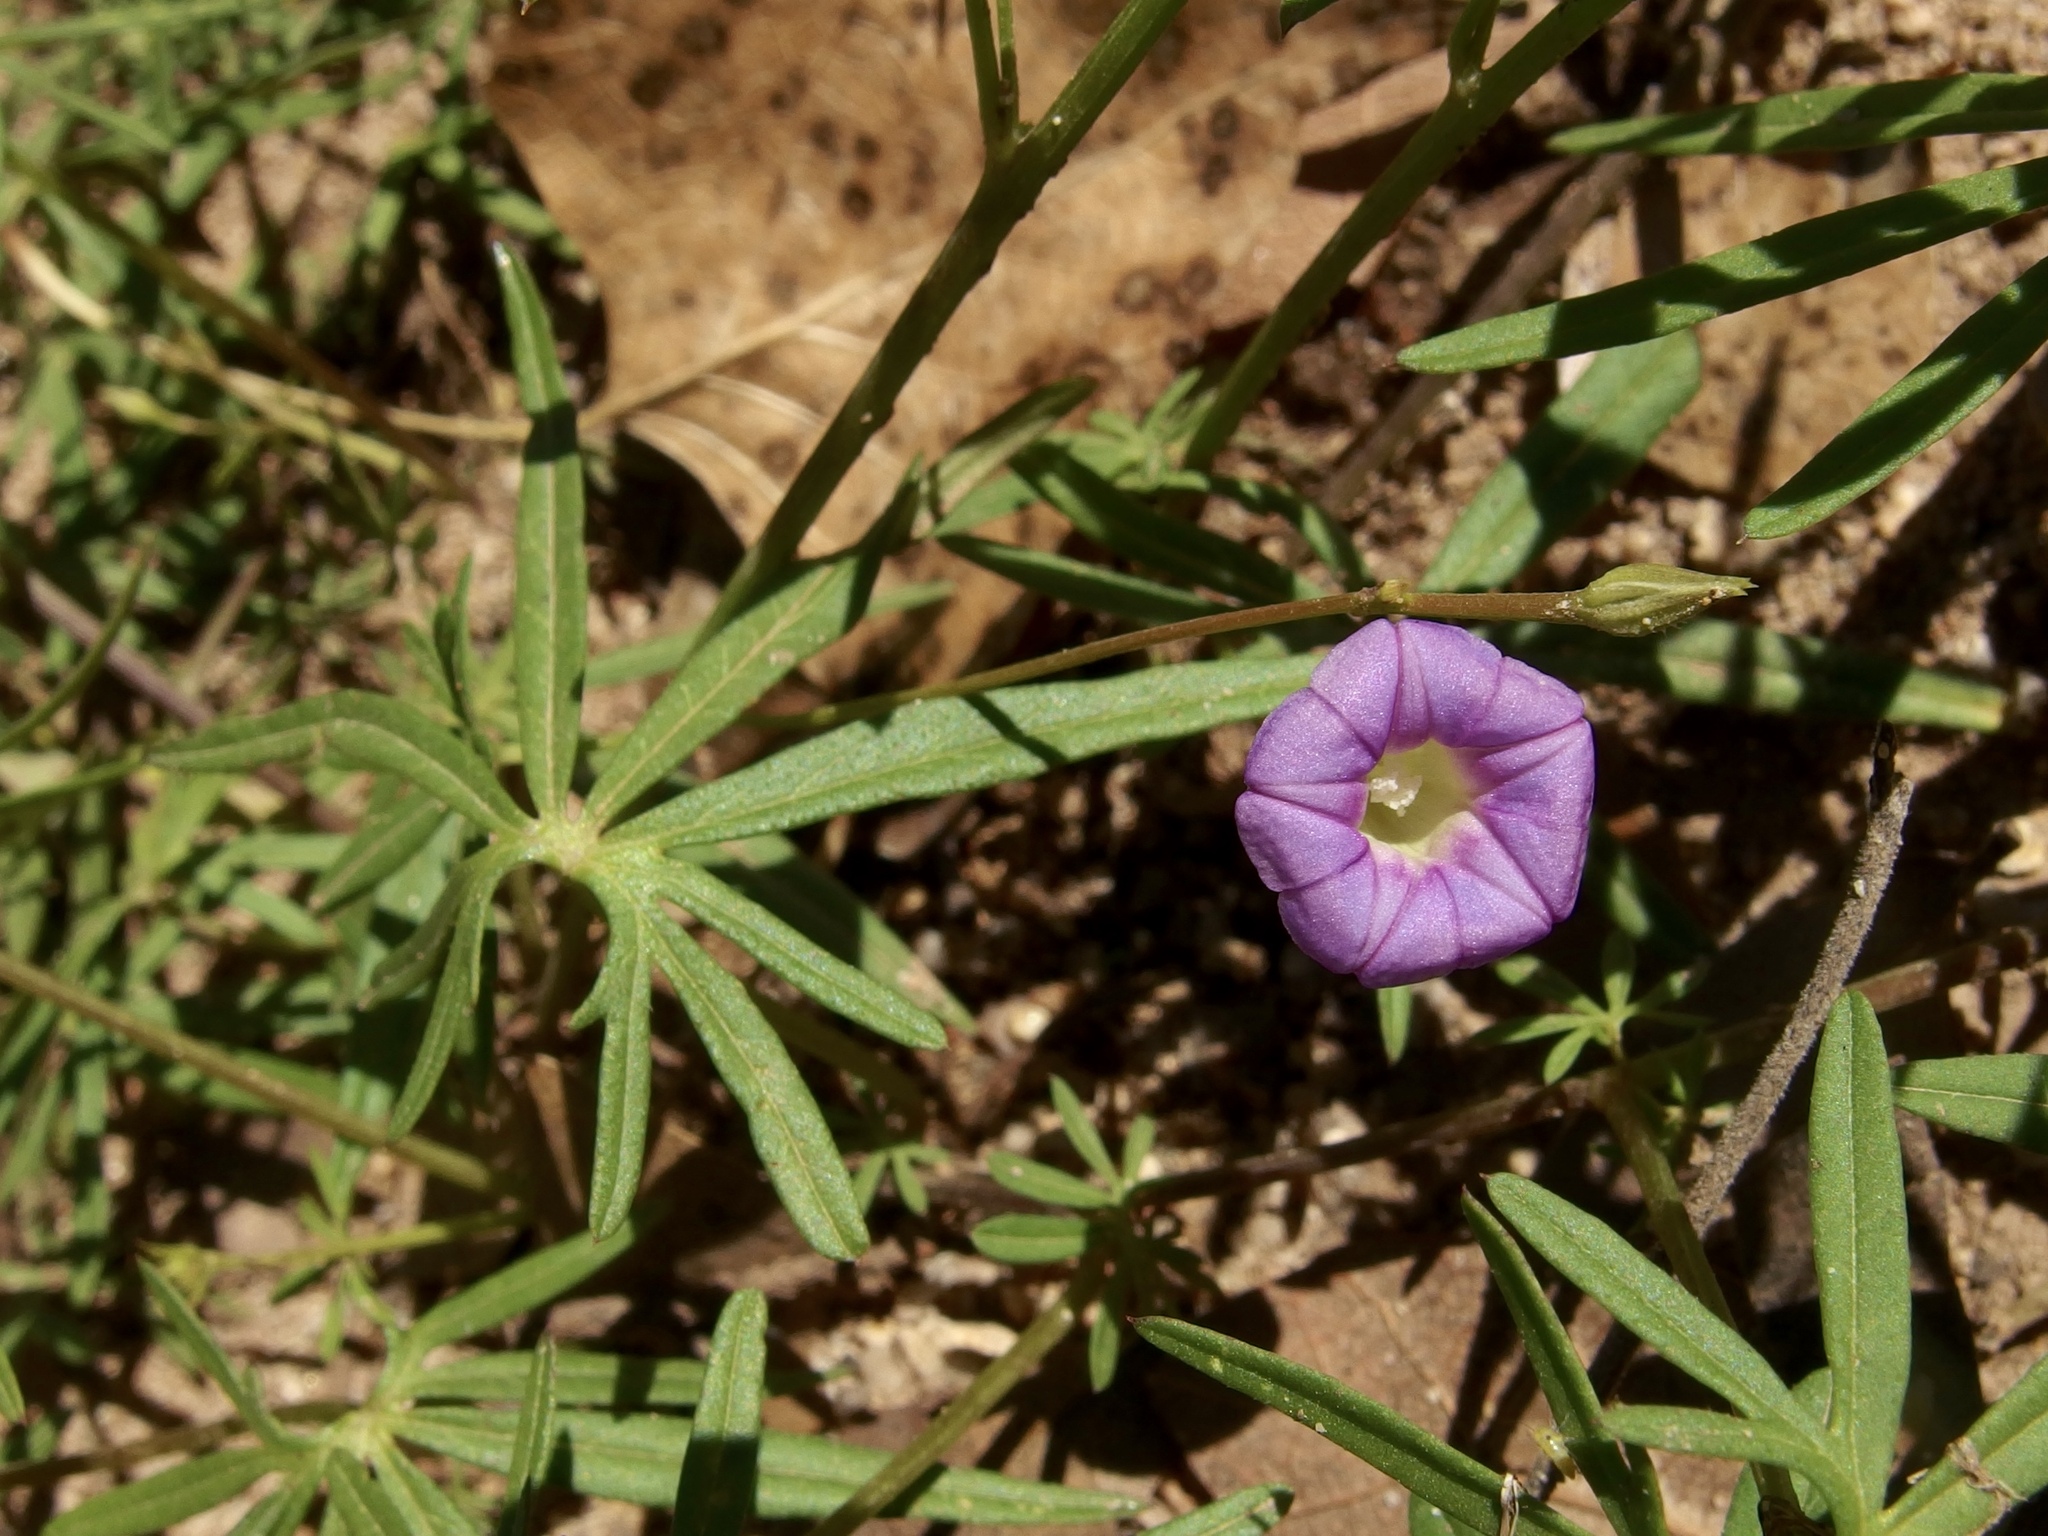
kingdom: Plantae
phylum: Tracheophyta
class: Magnoliopsida
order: Solanales
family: Convolvulaceae
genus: Ipomoea
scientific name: Ipomoea costellata
